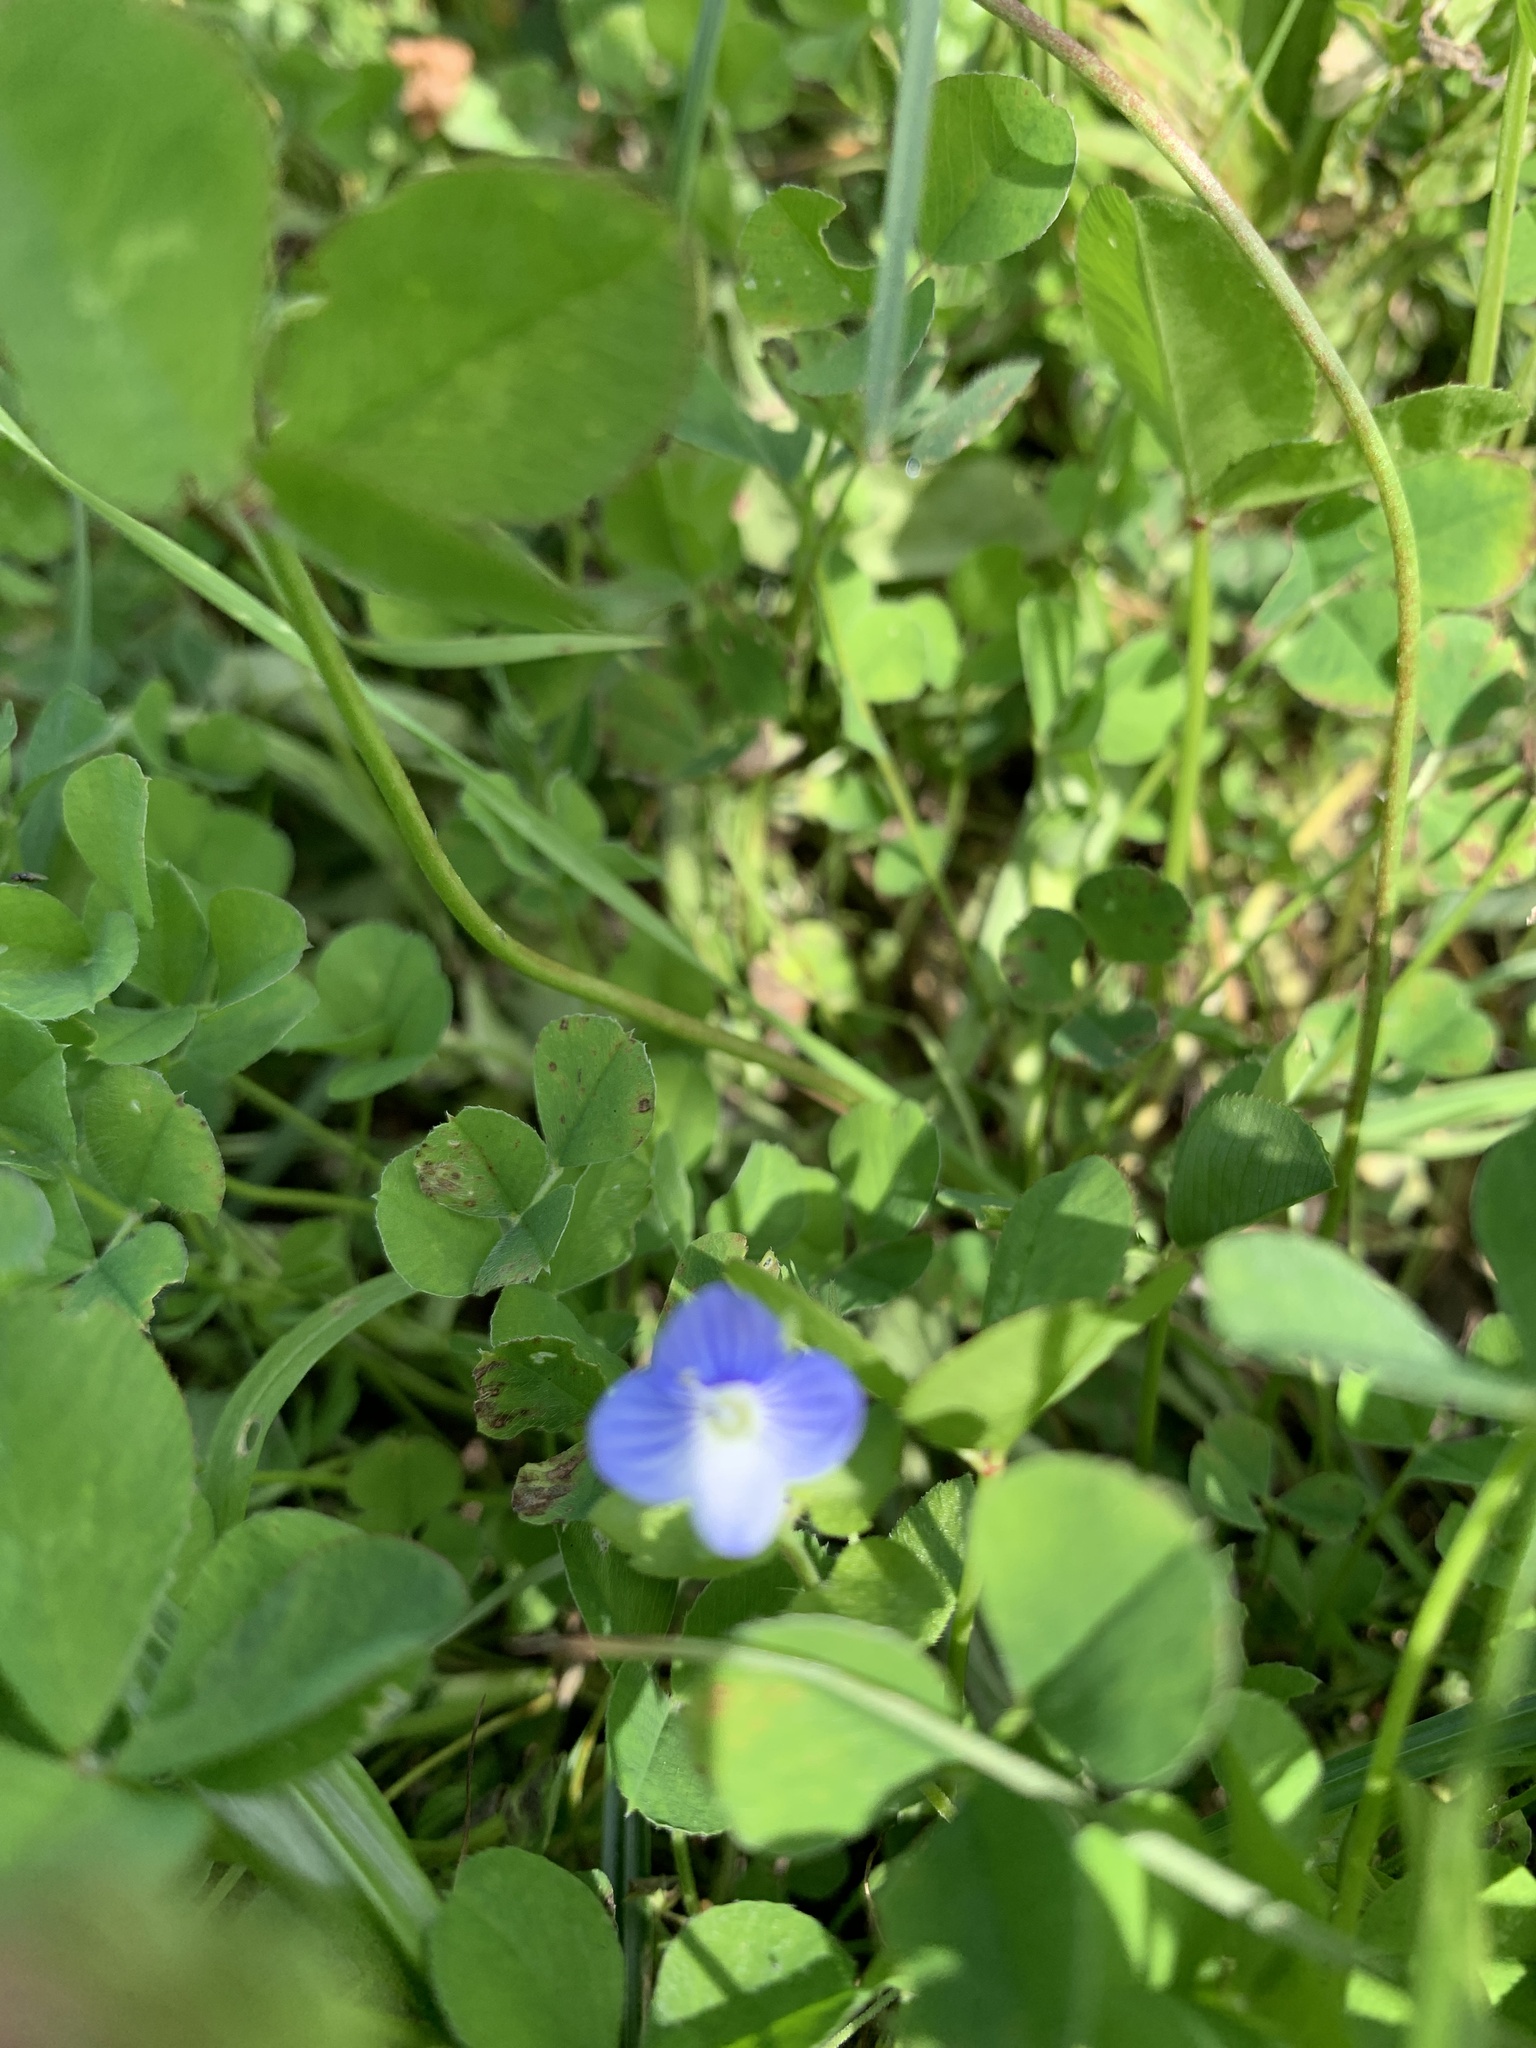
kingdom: Plantae
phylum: Tracheophyta
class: Magnoliopsida
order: Lamiales
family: Plantaginaceae
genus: Veronica
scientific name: Veronica persica
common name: Common field-speedwell
